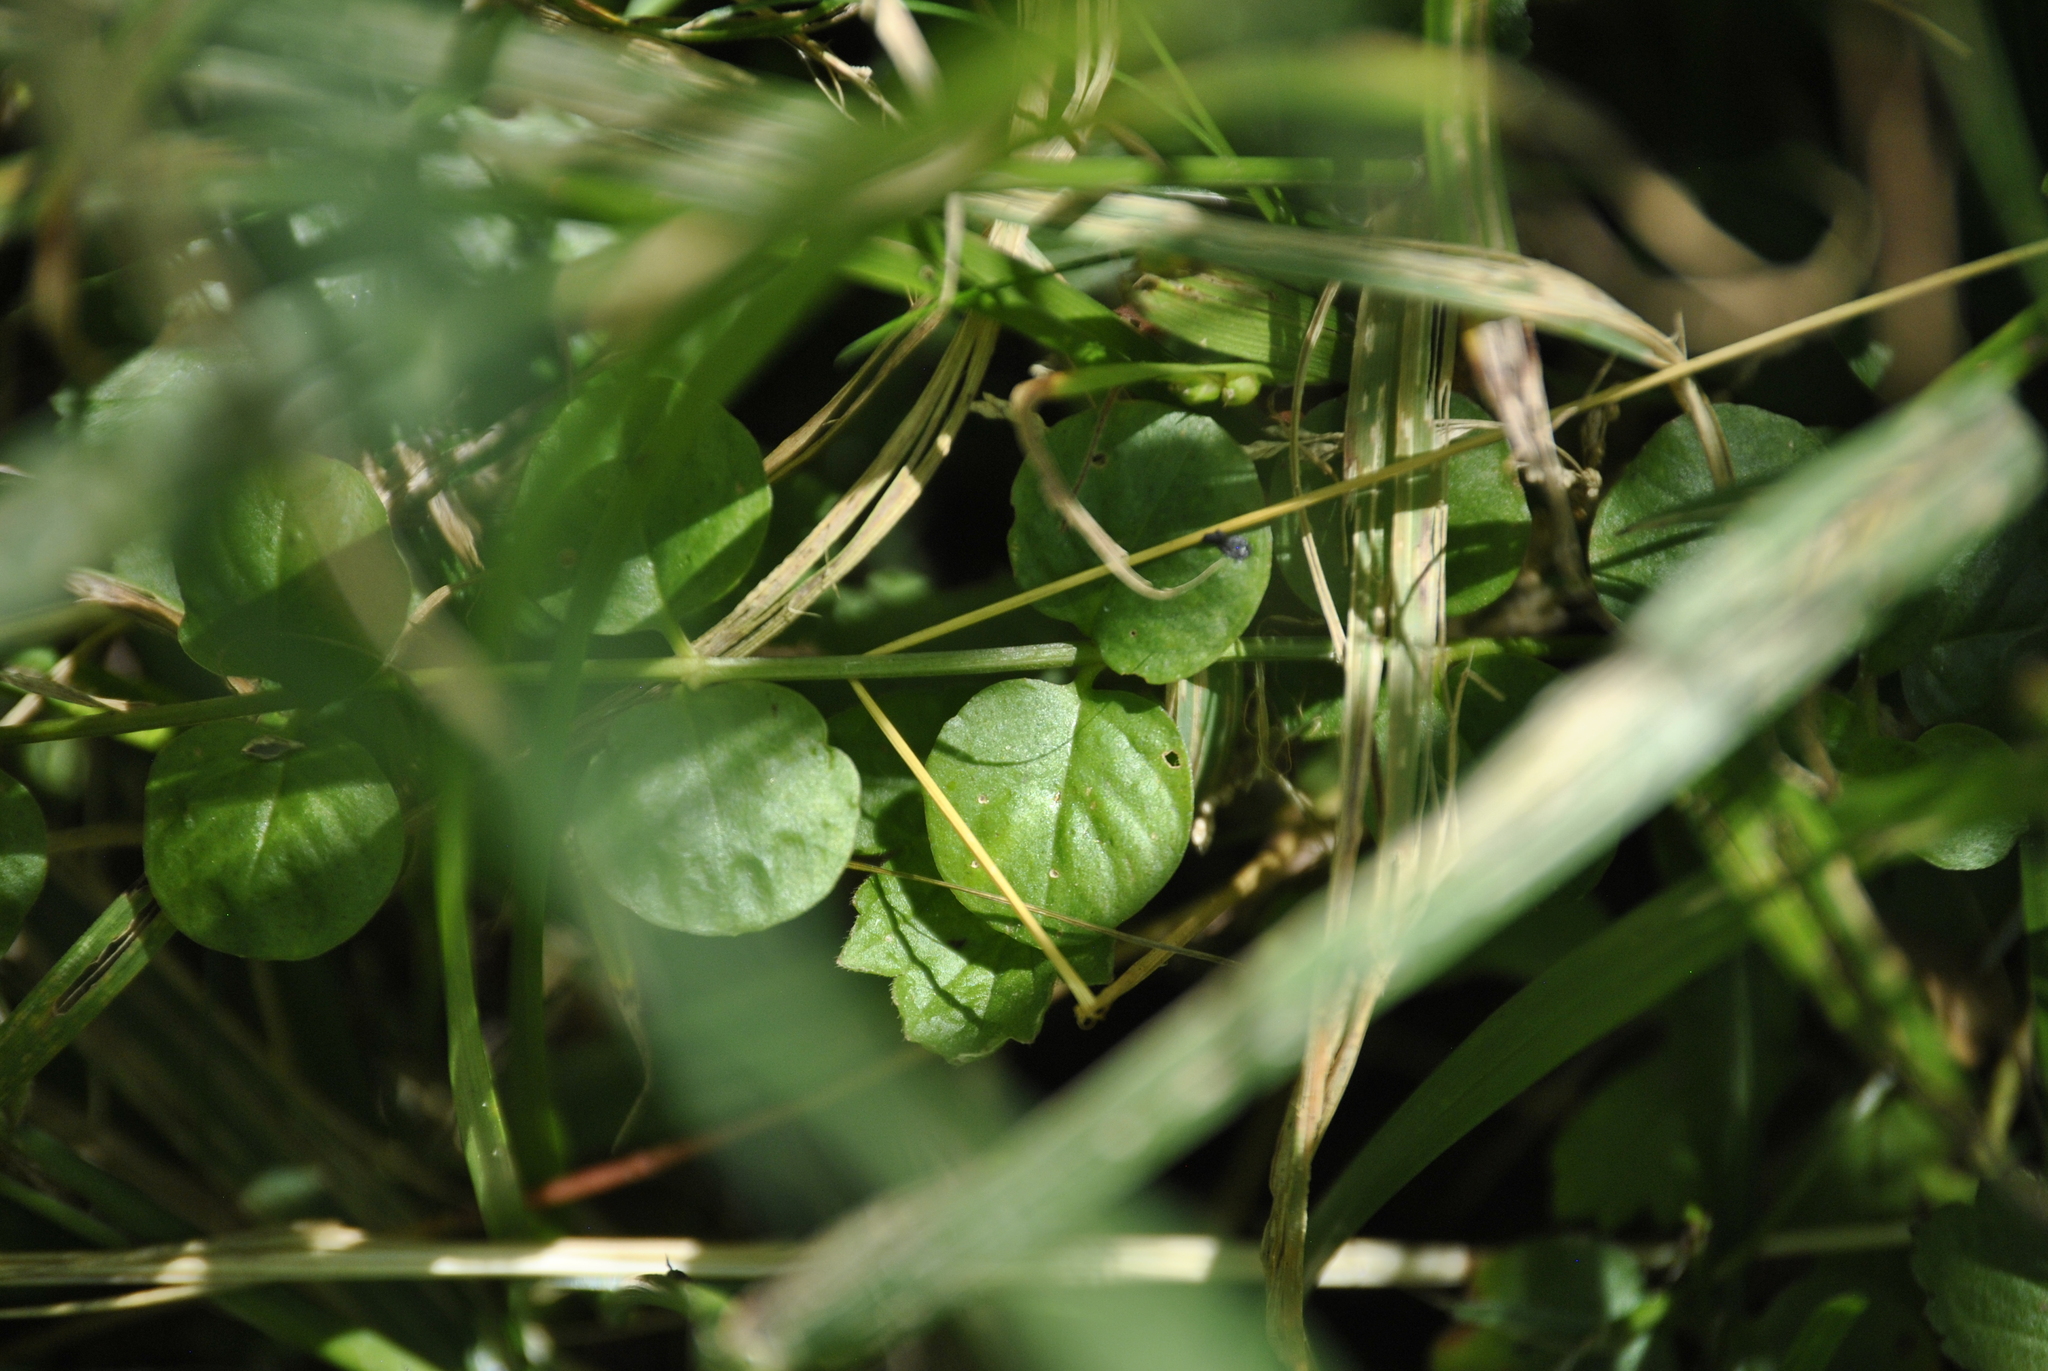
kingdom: Plantae
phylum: Tracheophyta
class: Magnoliopsida
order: Ericales
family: Primulaceae
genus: Lysimachia
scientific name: Lysimachia nummularia
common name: Moneywort
